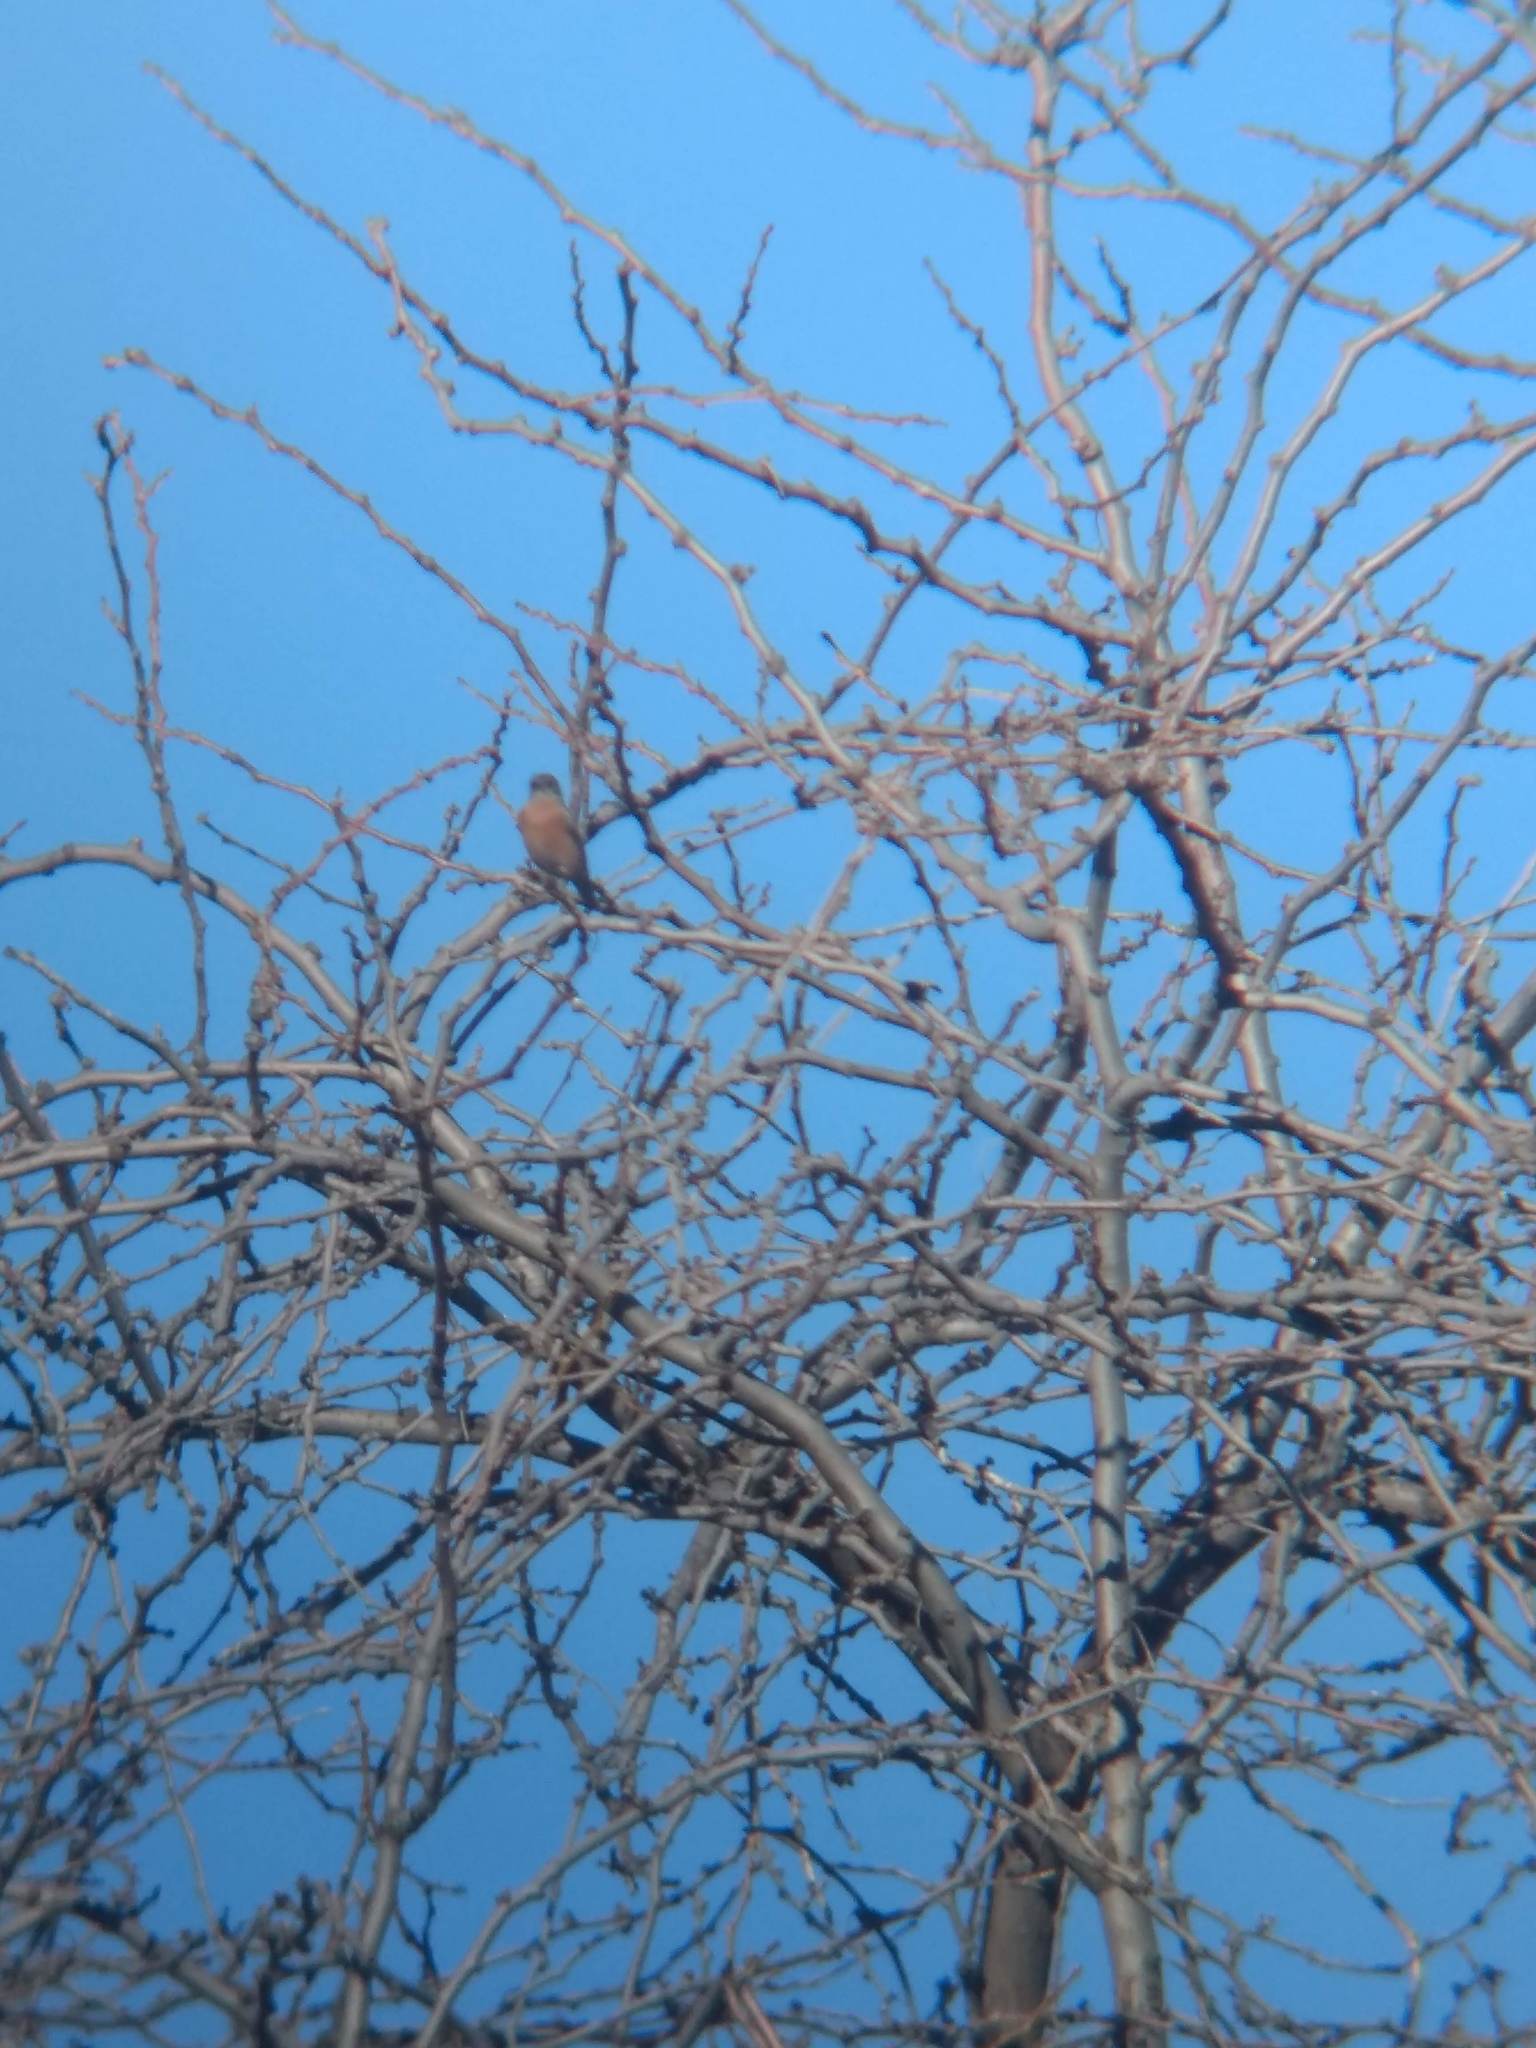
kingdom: Animalia
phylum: Chordata
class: Aves
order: Passeriformes
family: Turdidae
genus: Sialia
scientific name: Sialia mexicana
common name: Western bluebird
